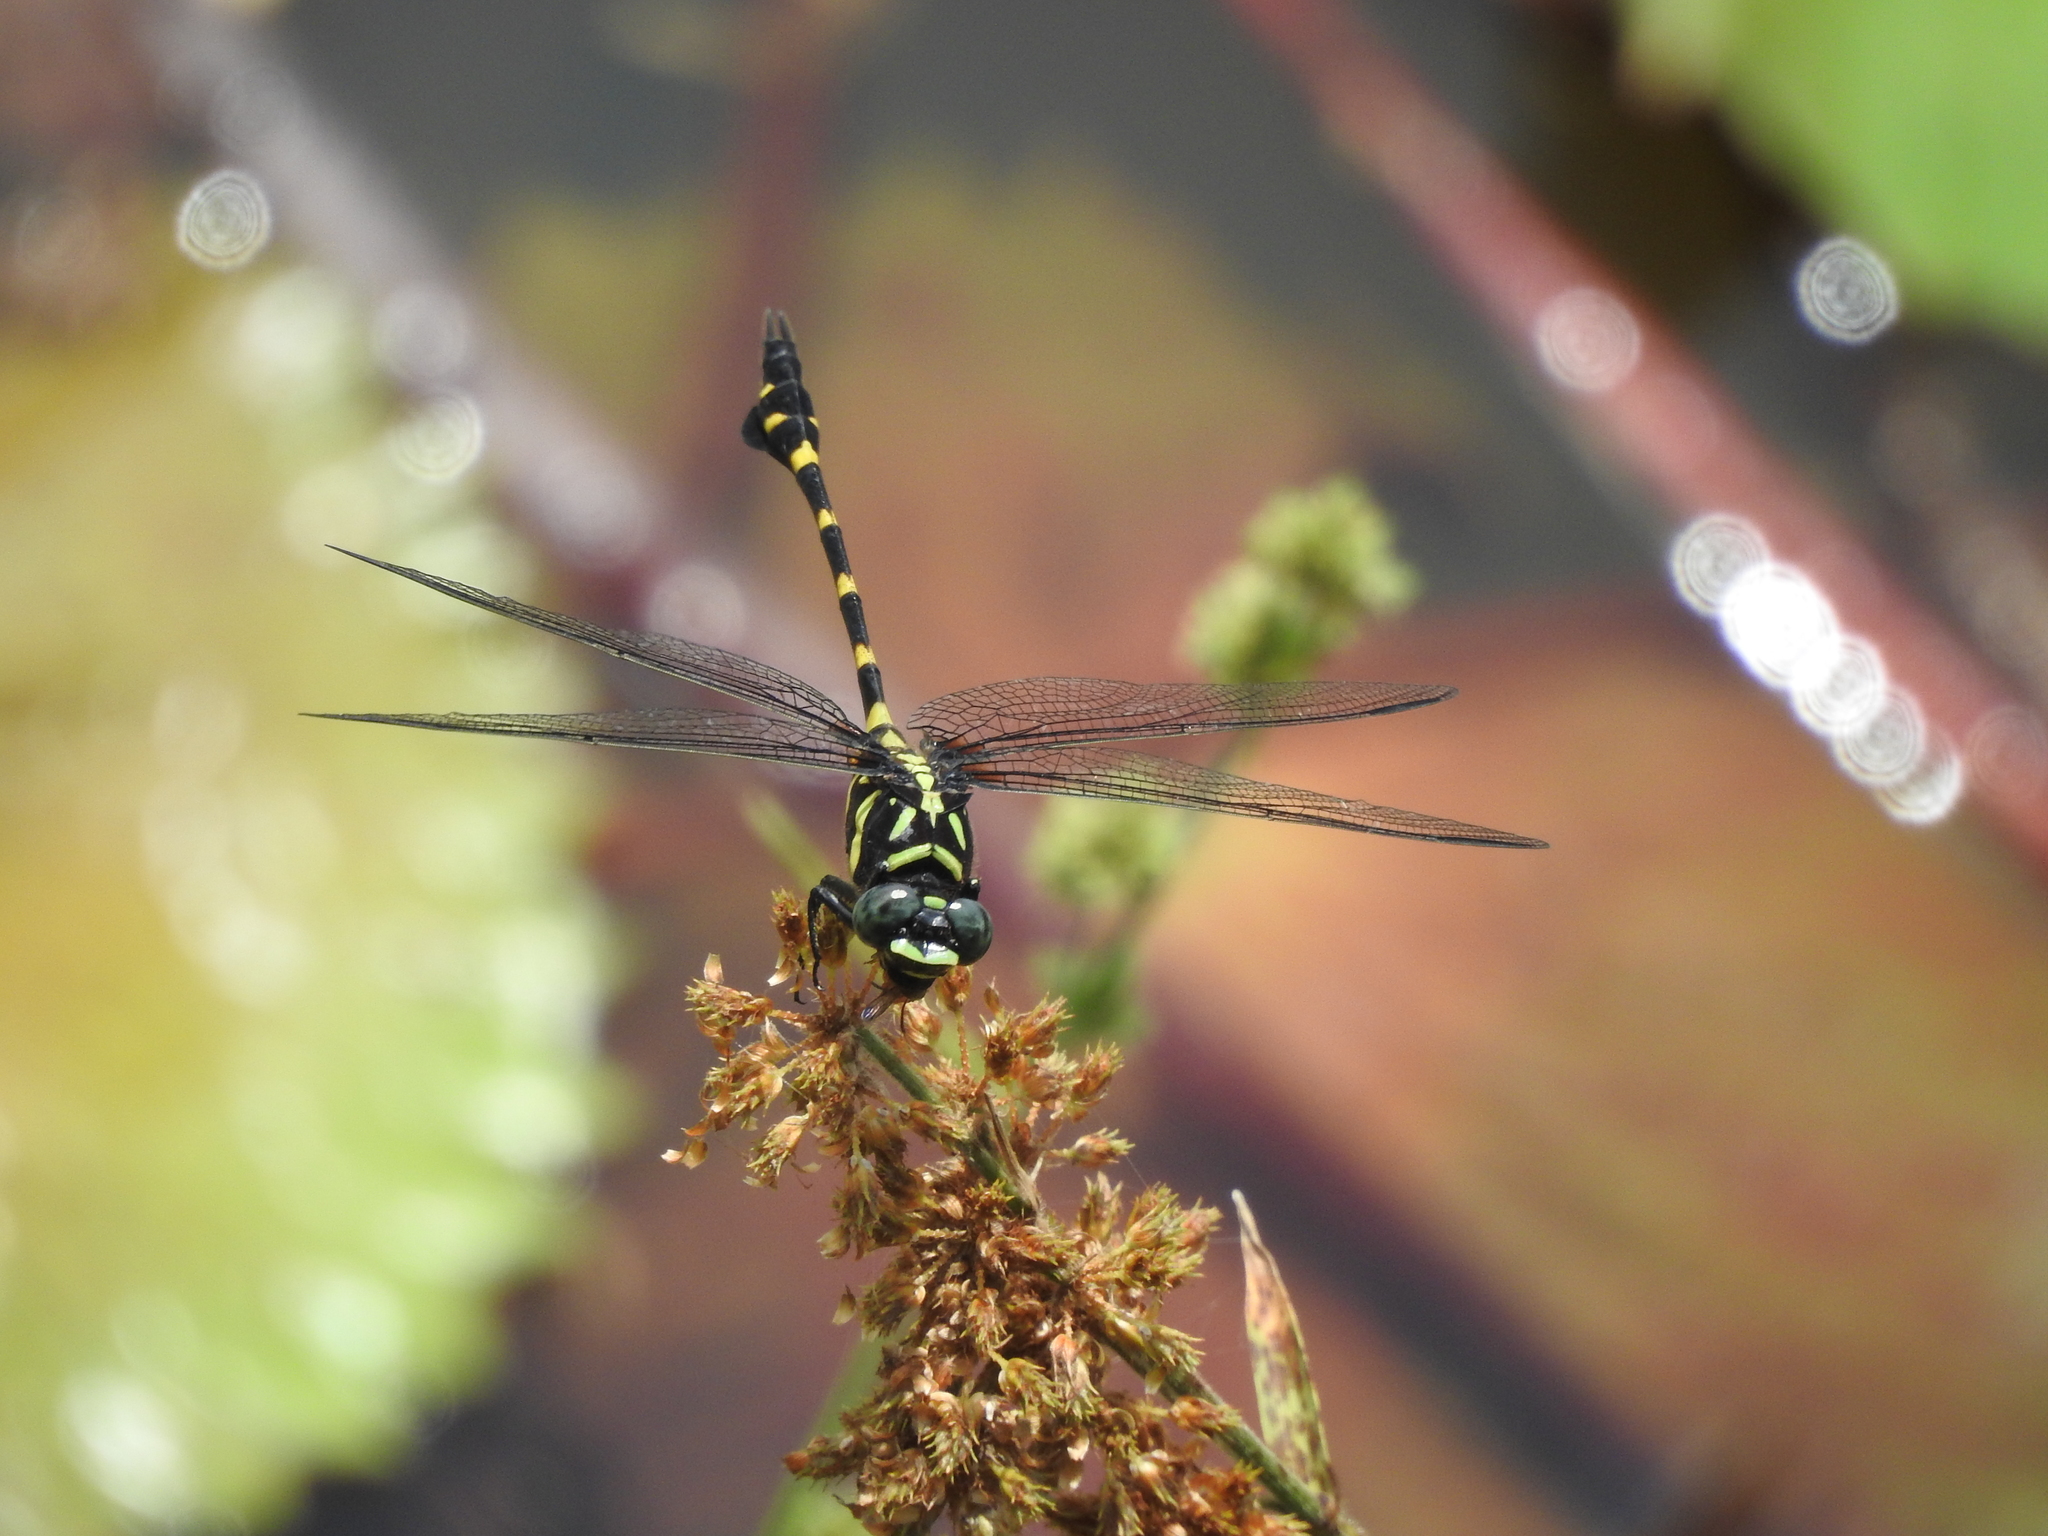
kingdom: Animalia
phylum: Arthropoda
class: Insecta
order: Odonata
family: Gomphidae
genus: Ictinogomphus
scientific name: Ictinogomphus decoratus
